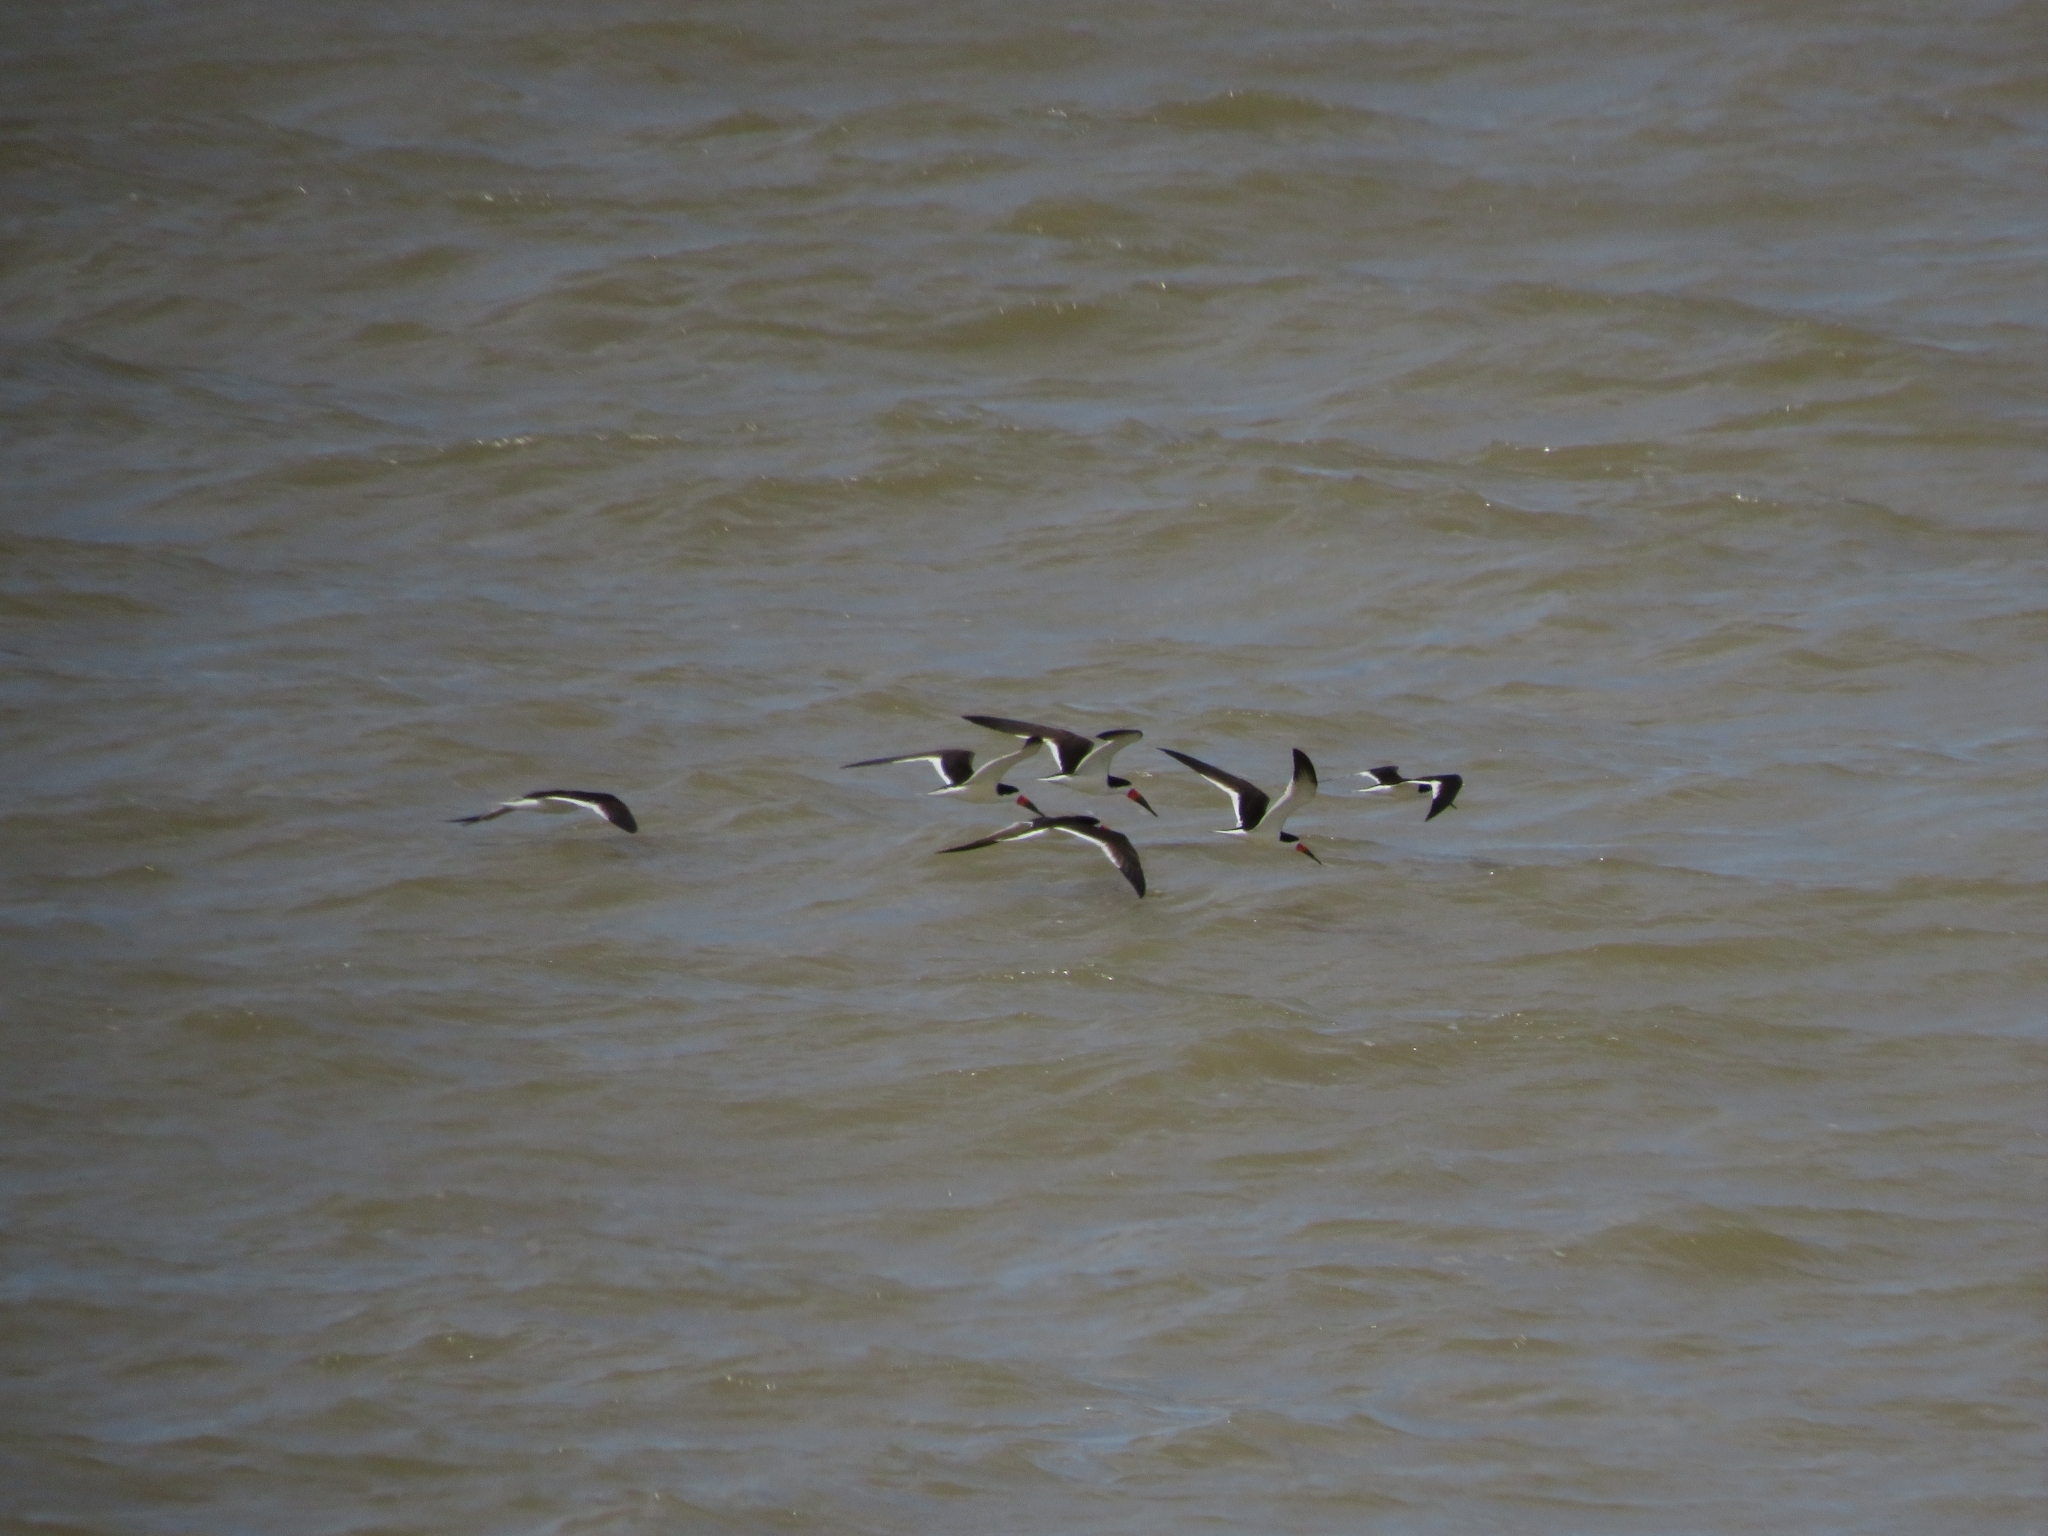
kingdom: Animalia
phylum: Chordata
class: Aves
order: Charadriiformes
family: Laridae
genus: Rynchops
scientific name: Rynchops niger
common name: Black skimmer
